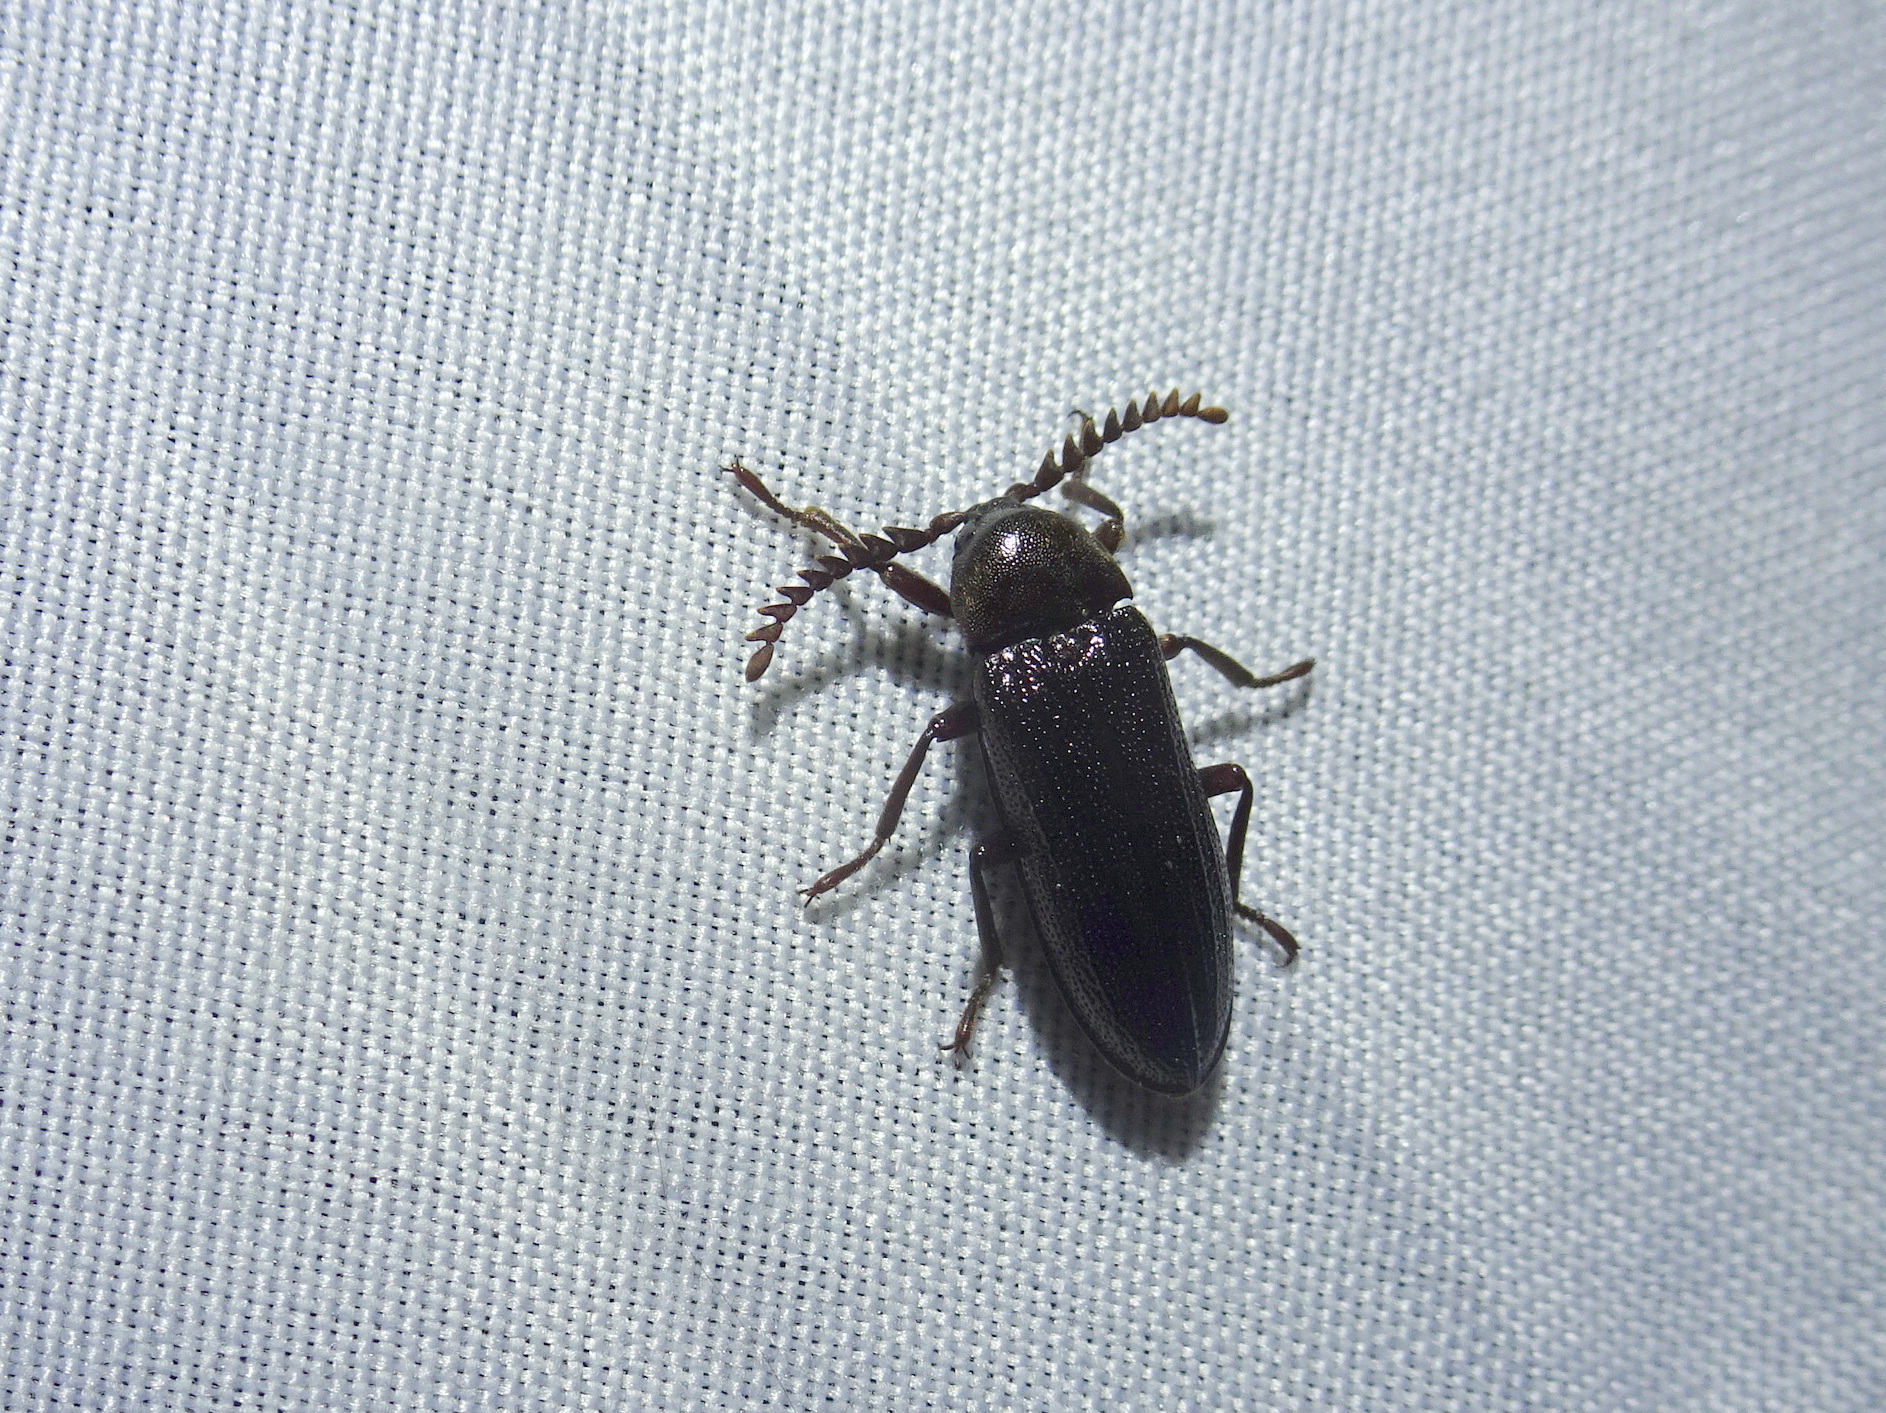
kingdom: Animalia
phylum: Arthropoda
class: Insecta
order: Coleoptera
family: Callirhipidae
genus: Zenoa
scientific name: Zenoa picea
